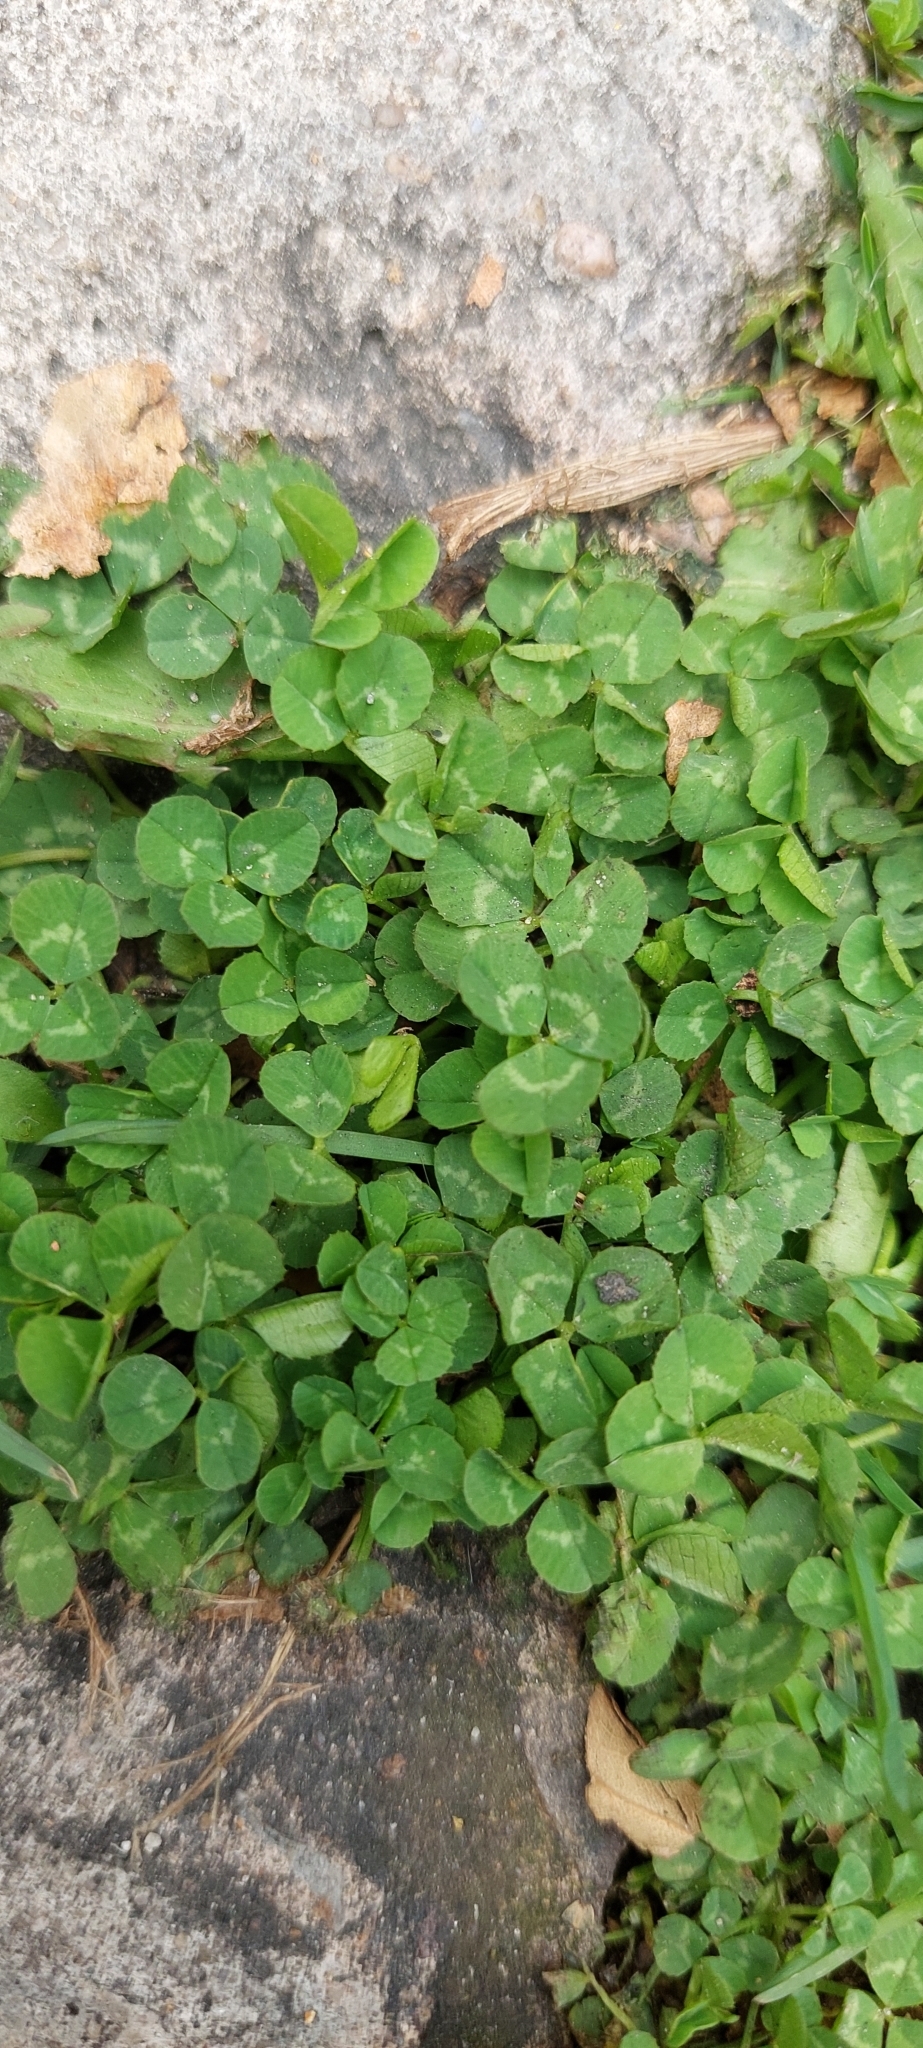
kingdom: Plantae
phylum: Tracheophyta
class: Magnoliopsida
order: Fabales
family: Fabaceae
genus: Trifolium
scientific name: Trifolium repens
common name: White clover
